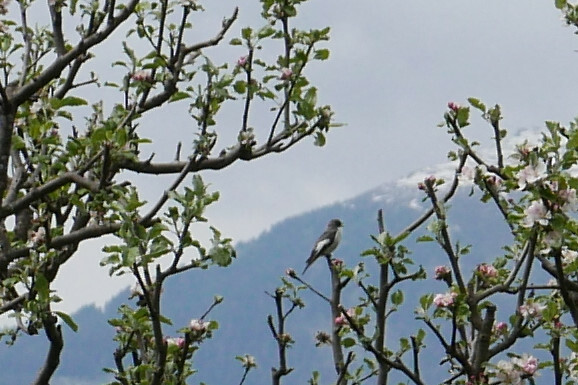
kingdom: Animalia
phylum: Chordata
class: Aves
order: Passeriformes
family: Muscicapidae
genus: Ficedula
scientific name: Ficedula hypoleuca
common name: European pied flycatcher
